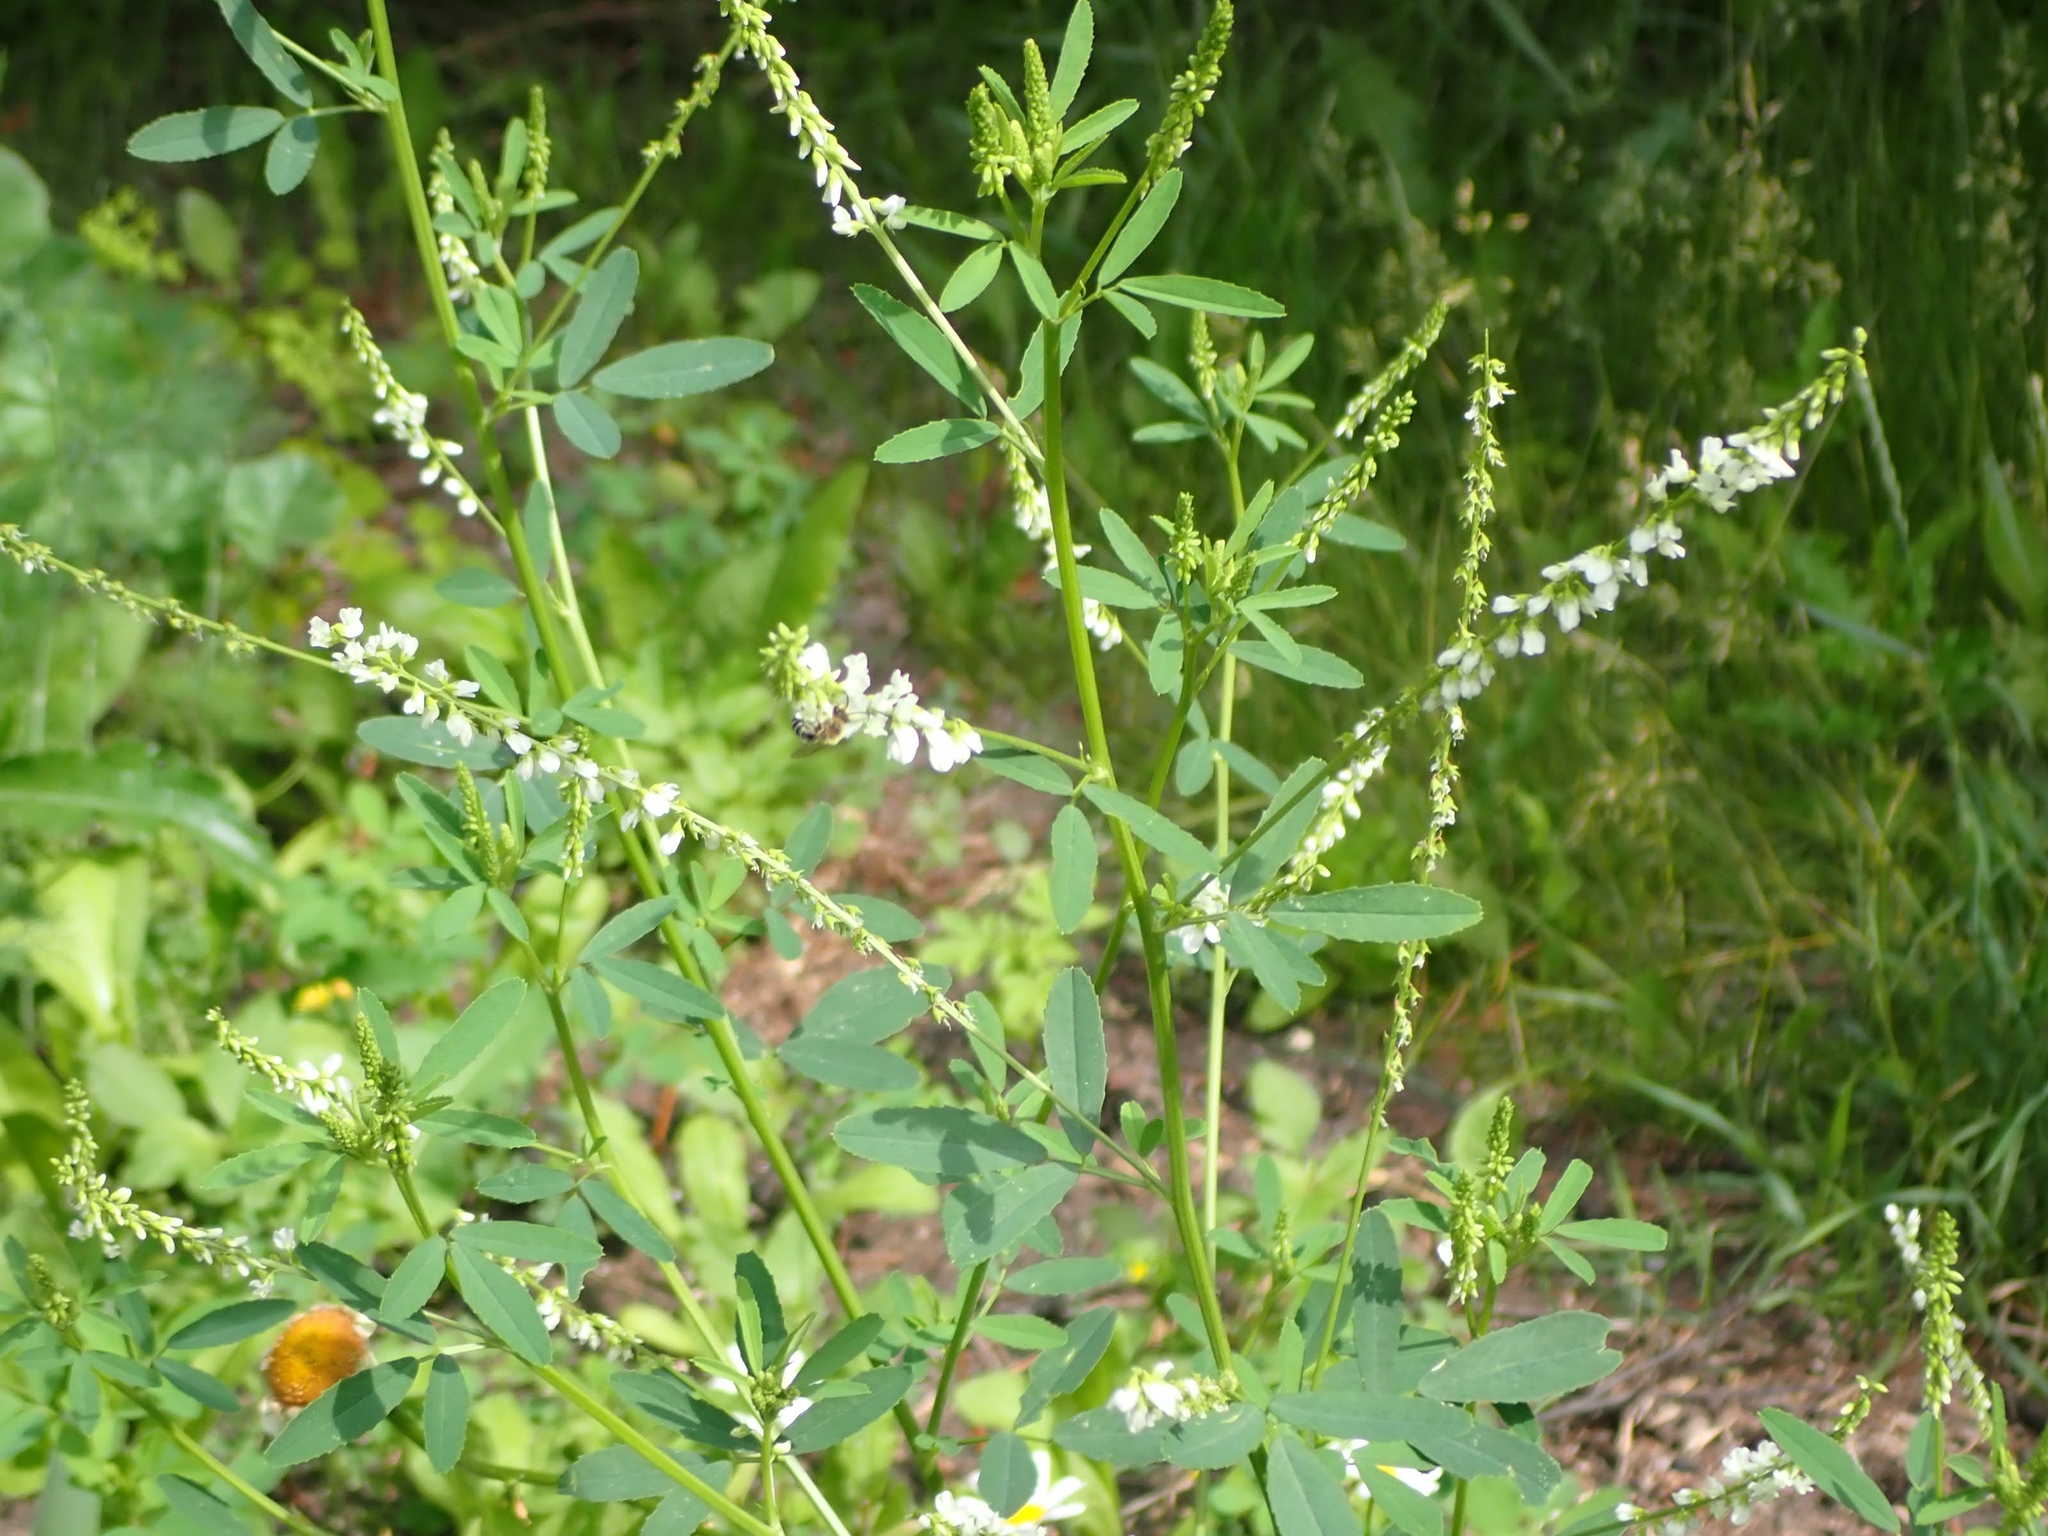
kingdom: Plantae
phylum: Tracheophyta
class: Magnoliopsida
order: Fabales
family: Fabaceae
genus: Melilotus
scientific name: Melilotus albus
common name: White melilot
